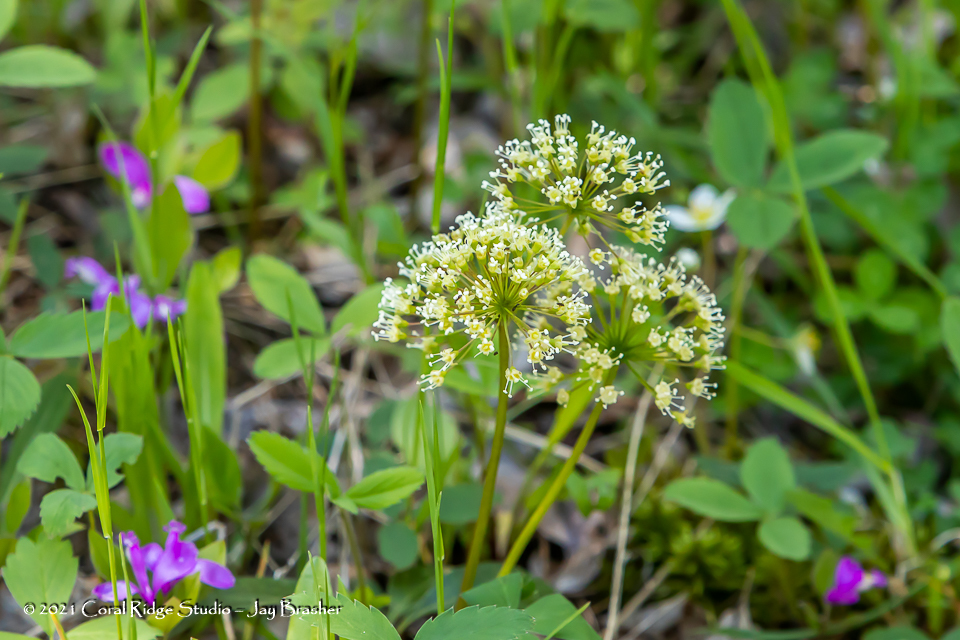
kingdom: Plantae
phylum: Tracheophyta
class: Magnoliopsida
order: Apiales
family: Araliaceae
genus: Aralia
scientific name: Aralia nudicaulis
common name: Wild sarsaparilla
